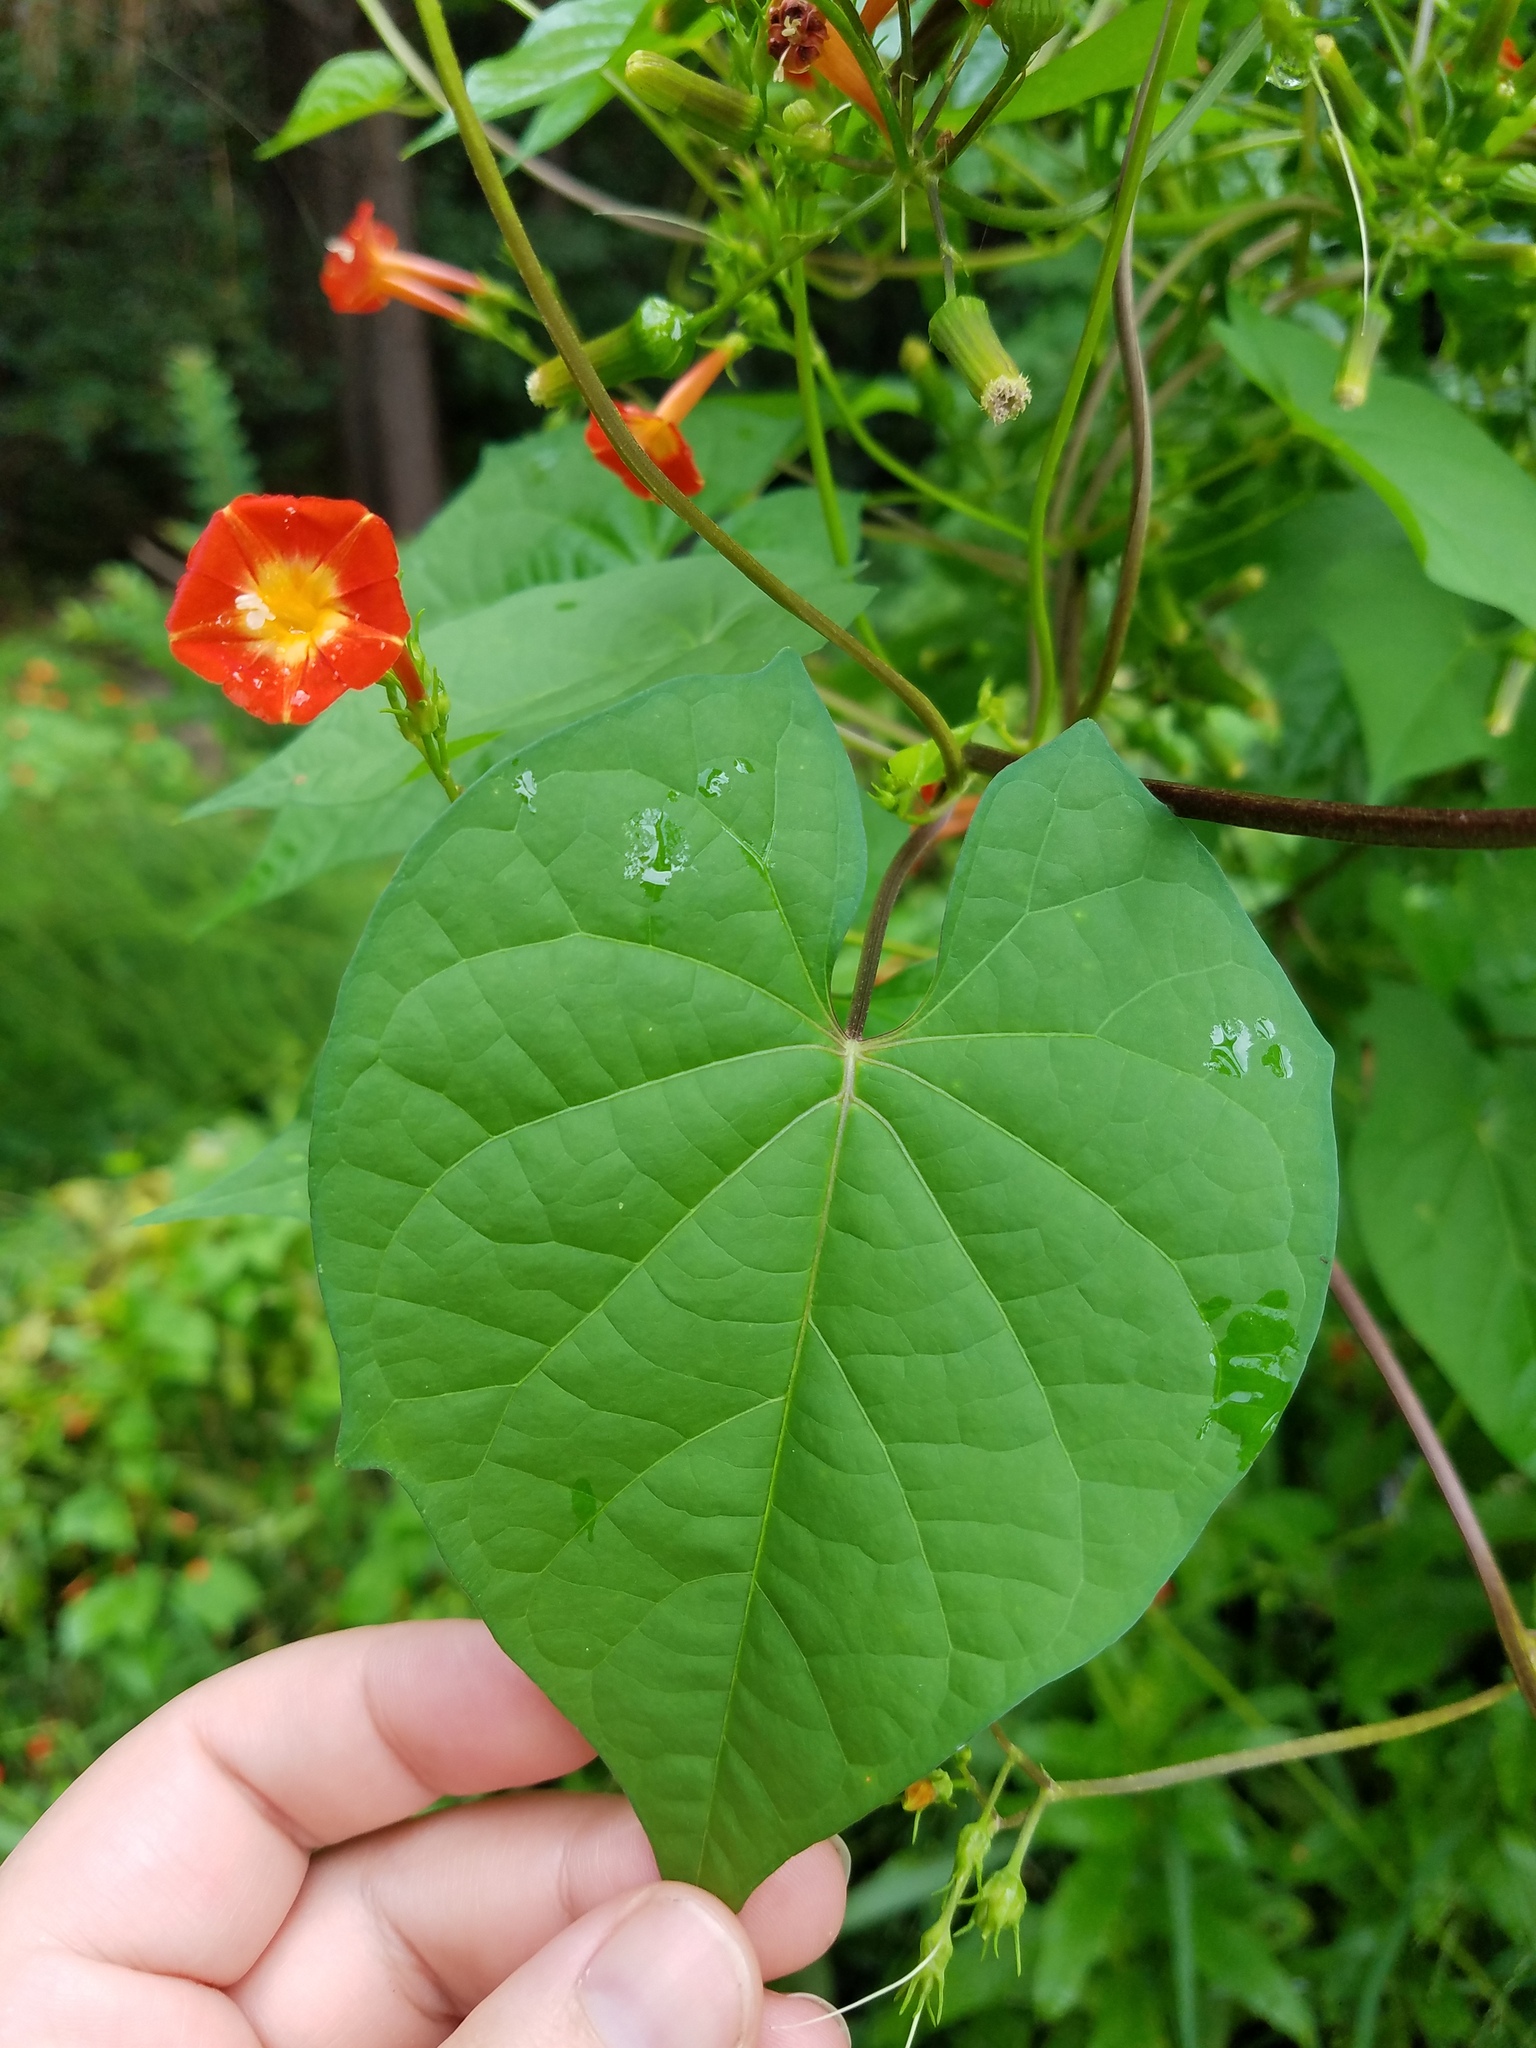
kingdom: Plantae
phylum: Tracheophyta
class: Magnoliopsida
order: Solanales
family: Convolvulaceae
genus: Ipomoea
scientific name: Ipomoea coccinea
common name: Red morning-glory
